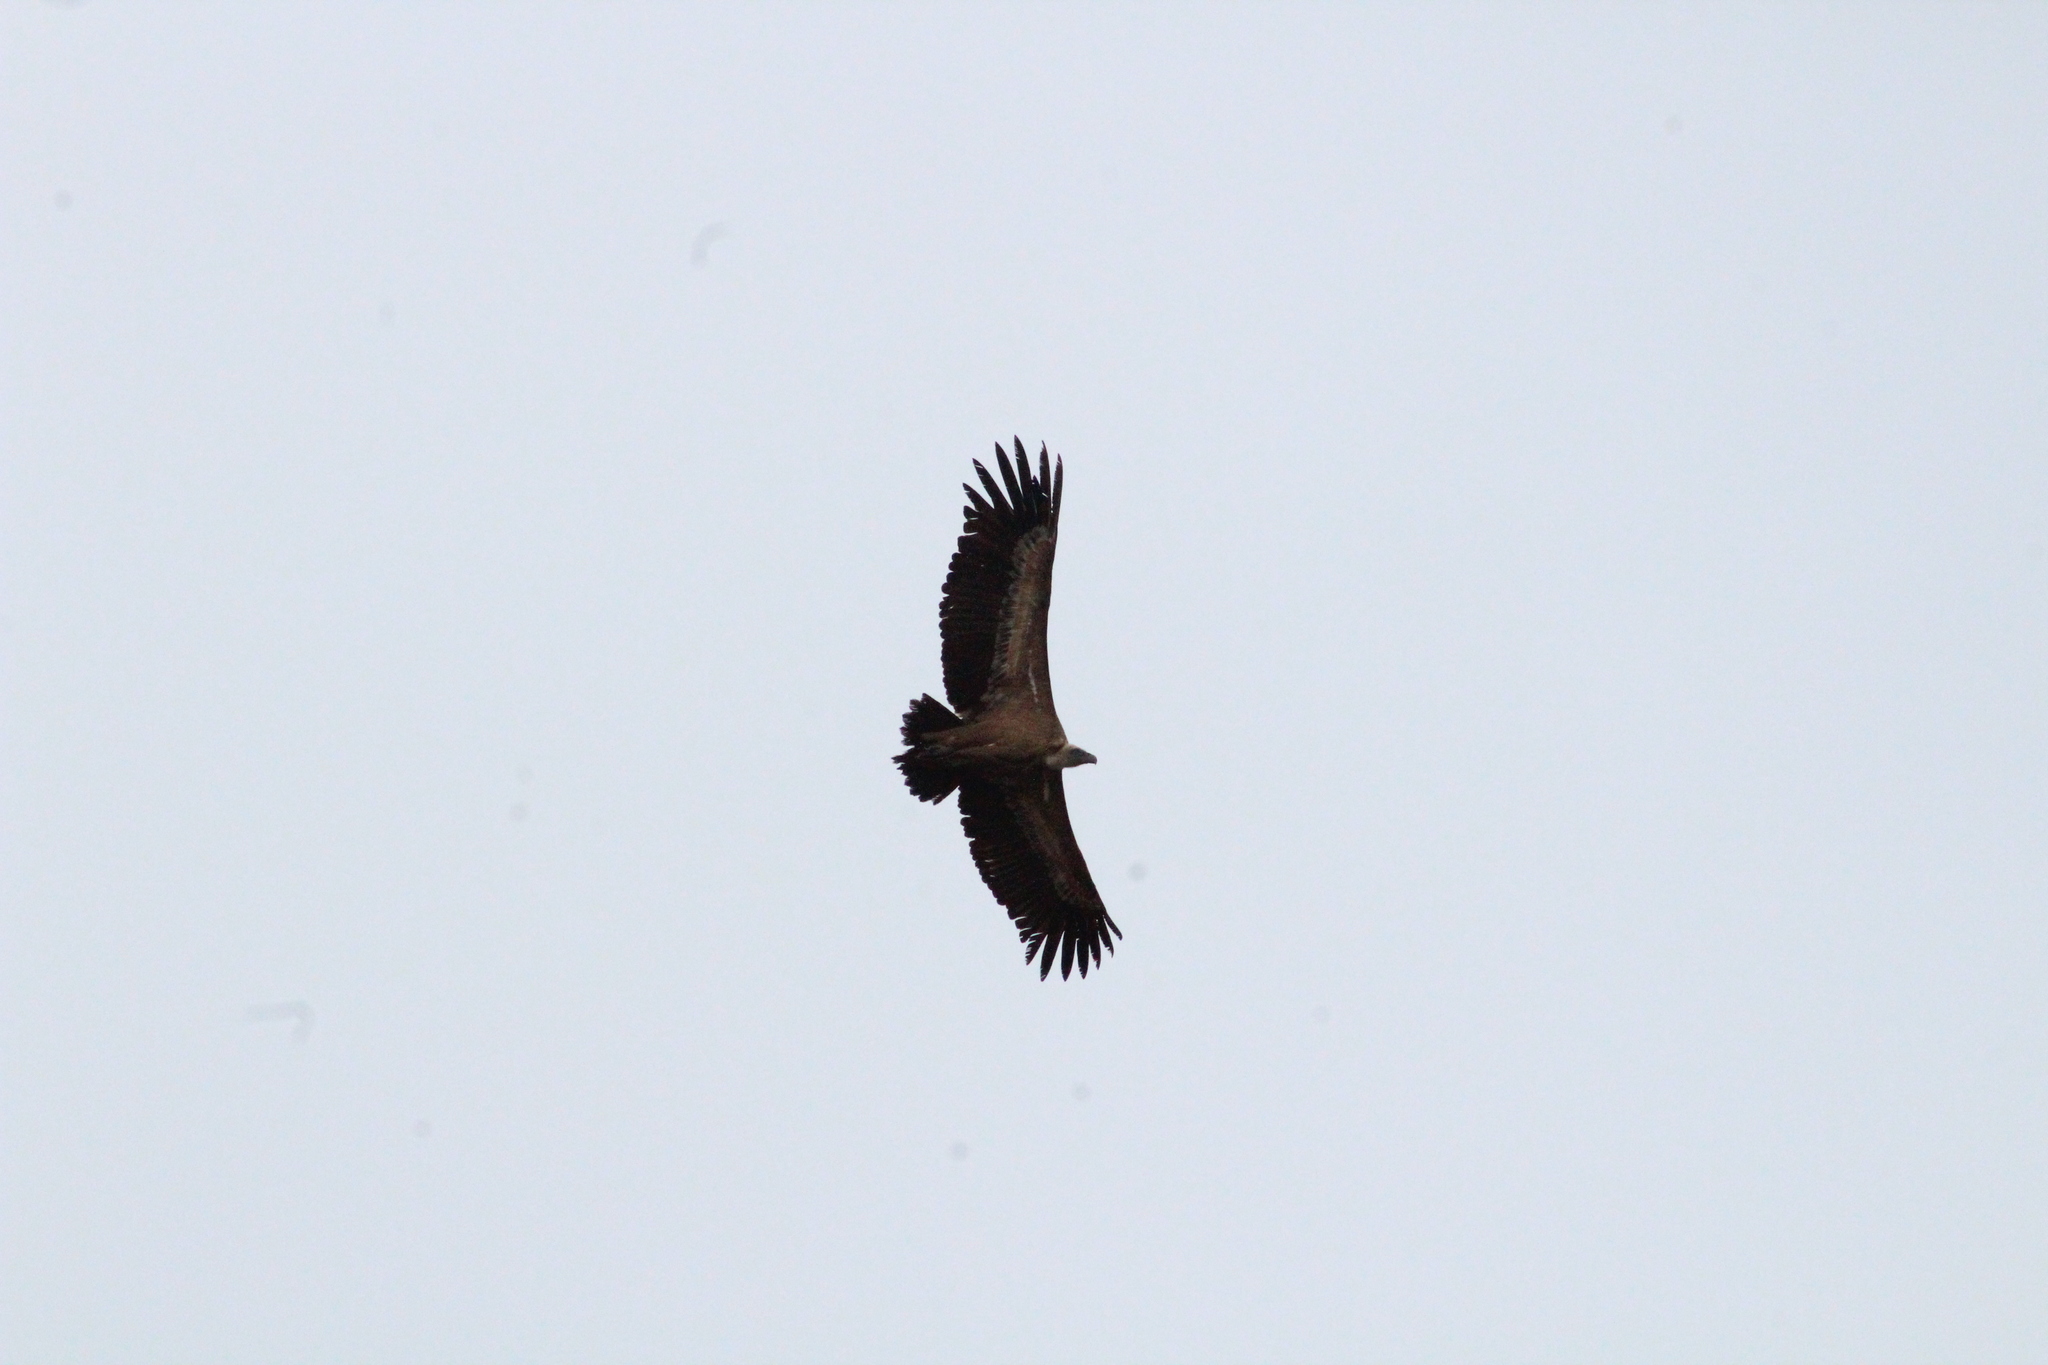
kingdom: Animalia
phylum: Chordata
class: Aves
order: Accipitriformes
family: Accipitridae
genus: Gyps
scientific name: Gyps fulvus
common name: Griffon vulture
